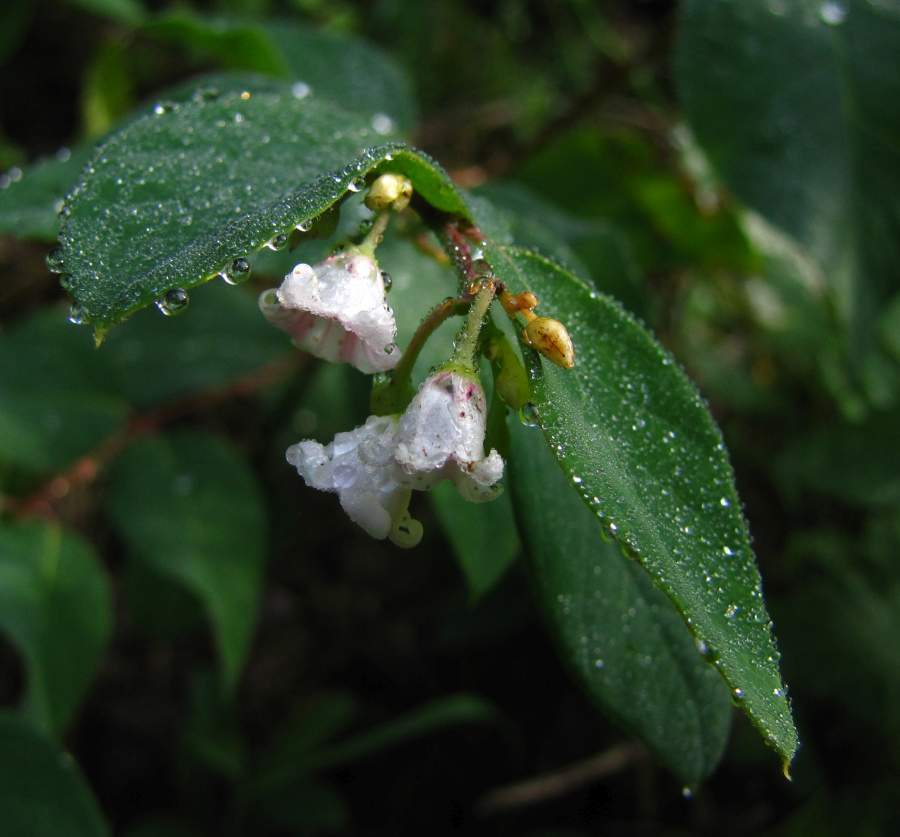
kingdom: Plantae
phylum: Tracheophyta
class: Magnoliopsida
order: Gentianales
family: Apocynaceae
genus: Apocynum
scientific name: Apocynum androsaemifolium
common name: Spreading dogbane
